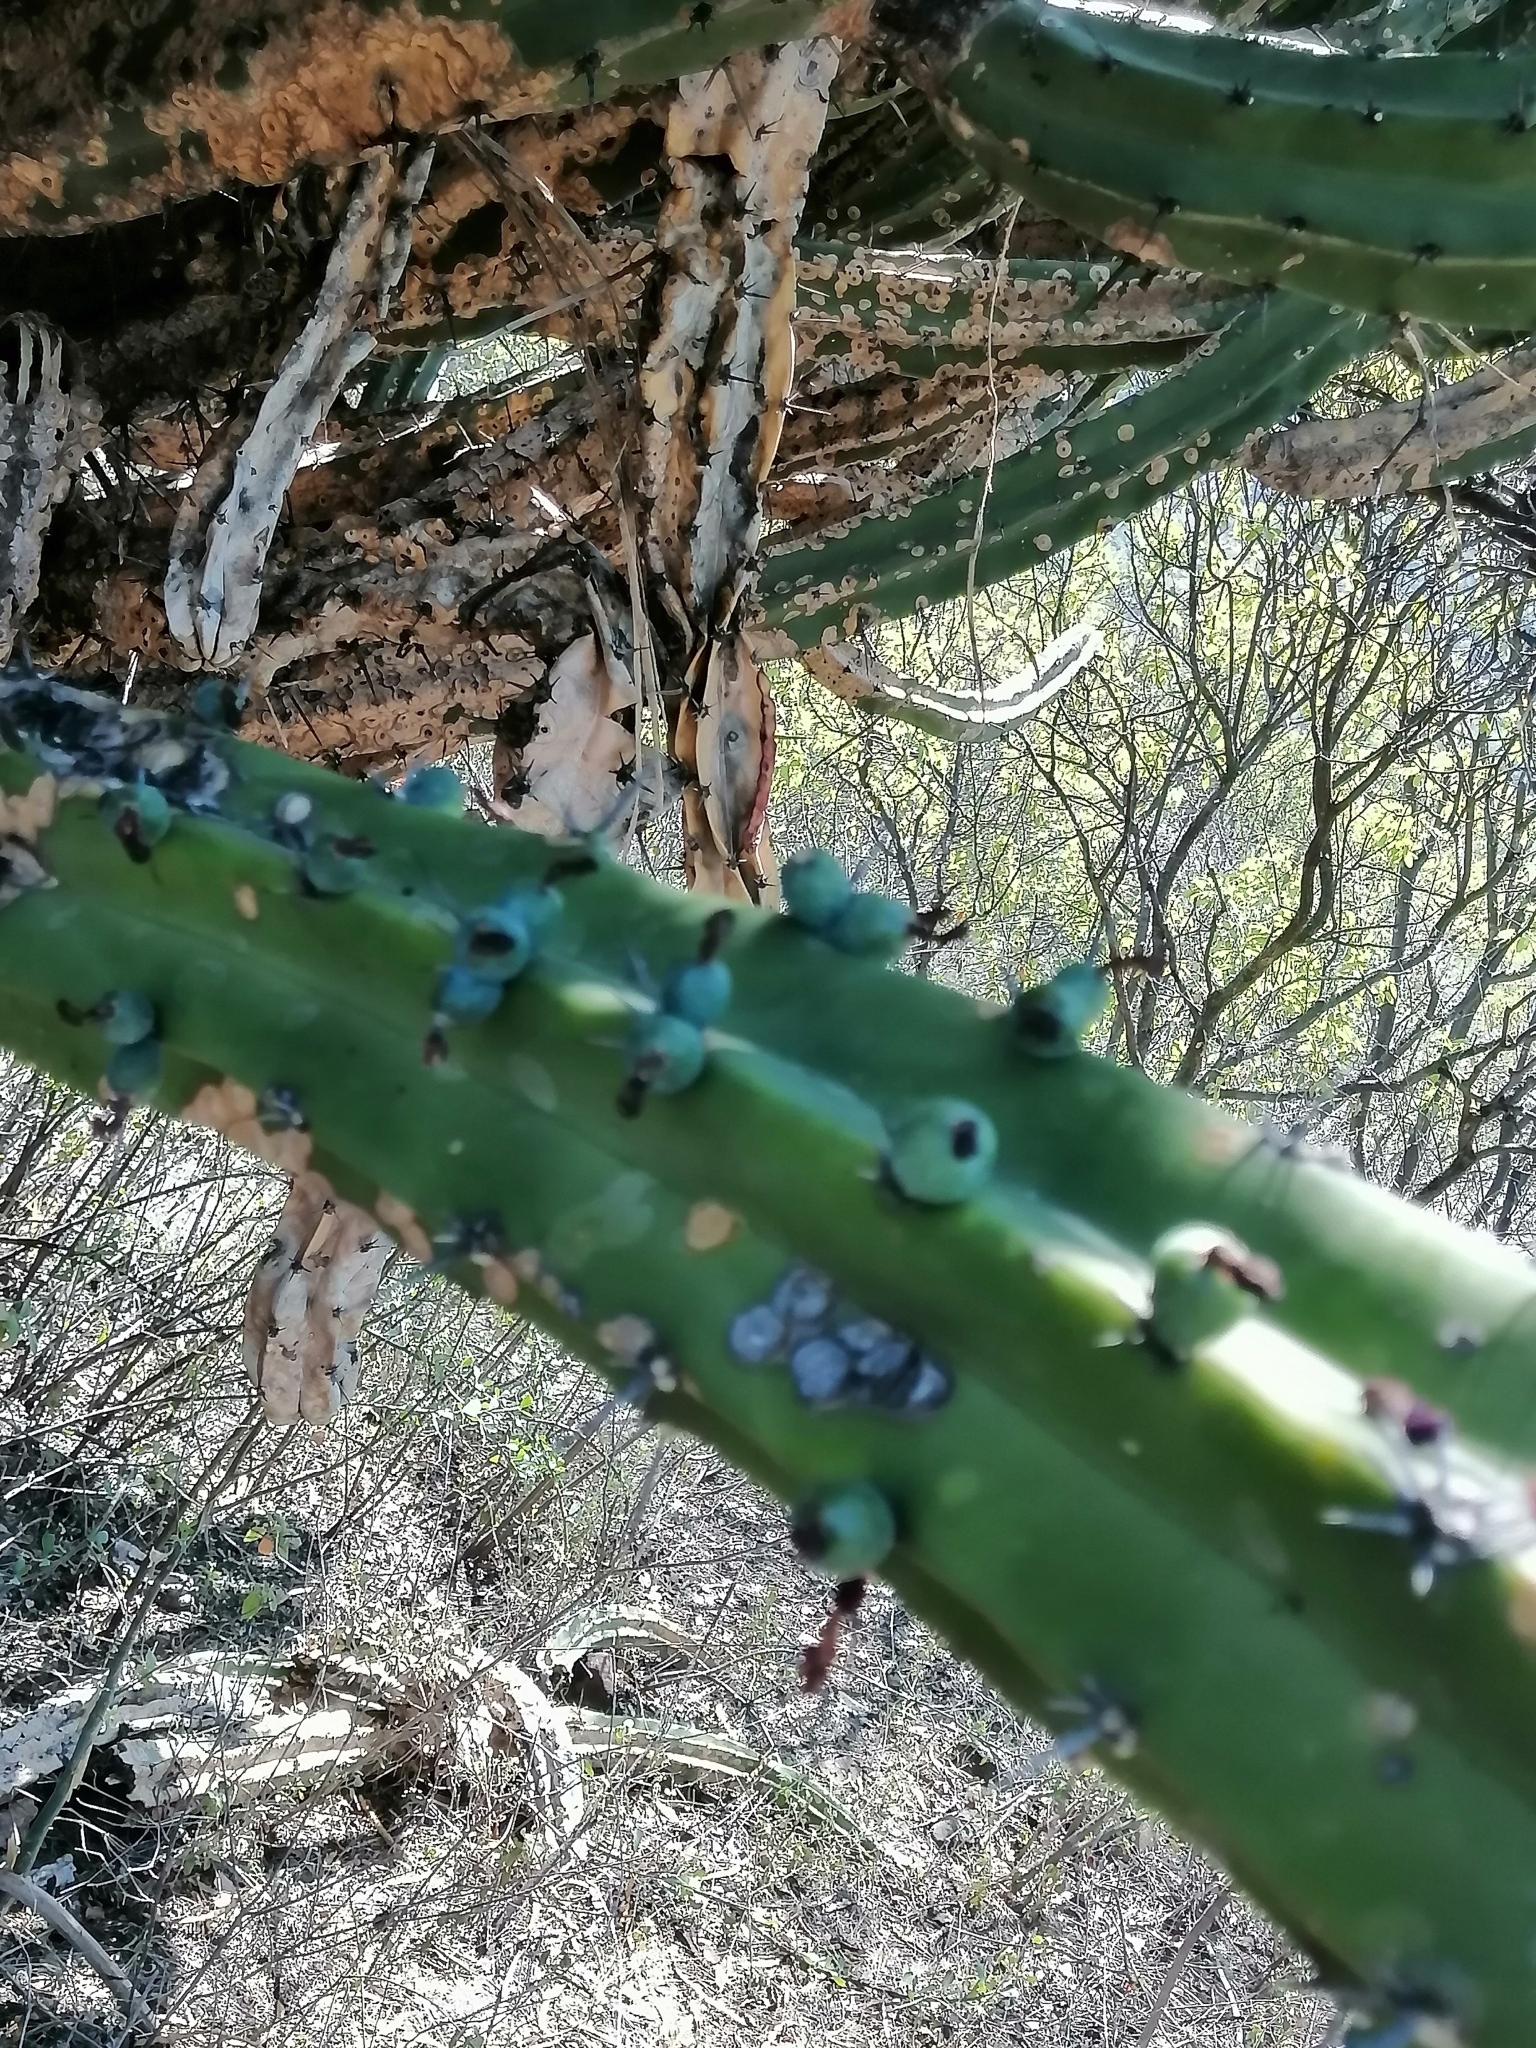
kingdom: Plantae
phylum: Tracheophyta
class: Magnoliopsida
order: Caryophyllales
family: Cactaceae
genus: Myrtillocactus
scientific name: Myrtillocactus geometrizans
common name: Bilberry cactus
